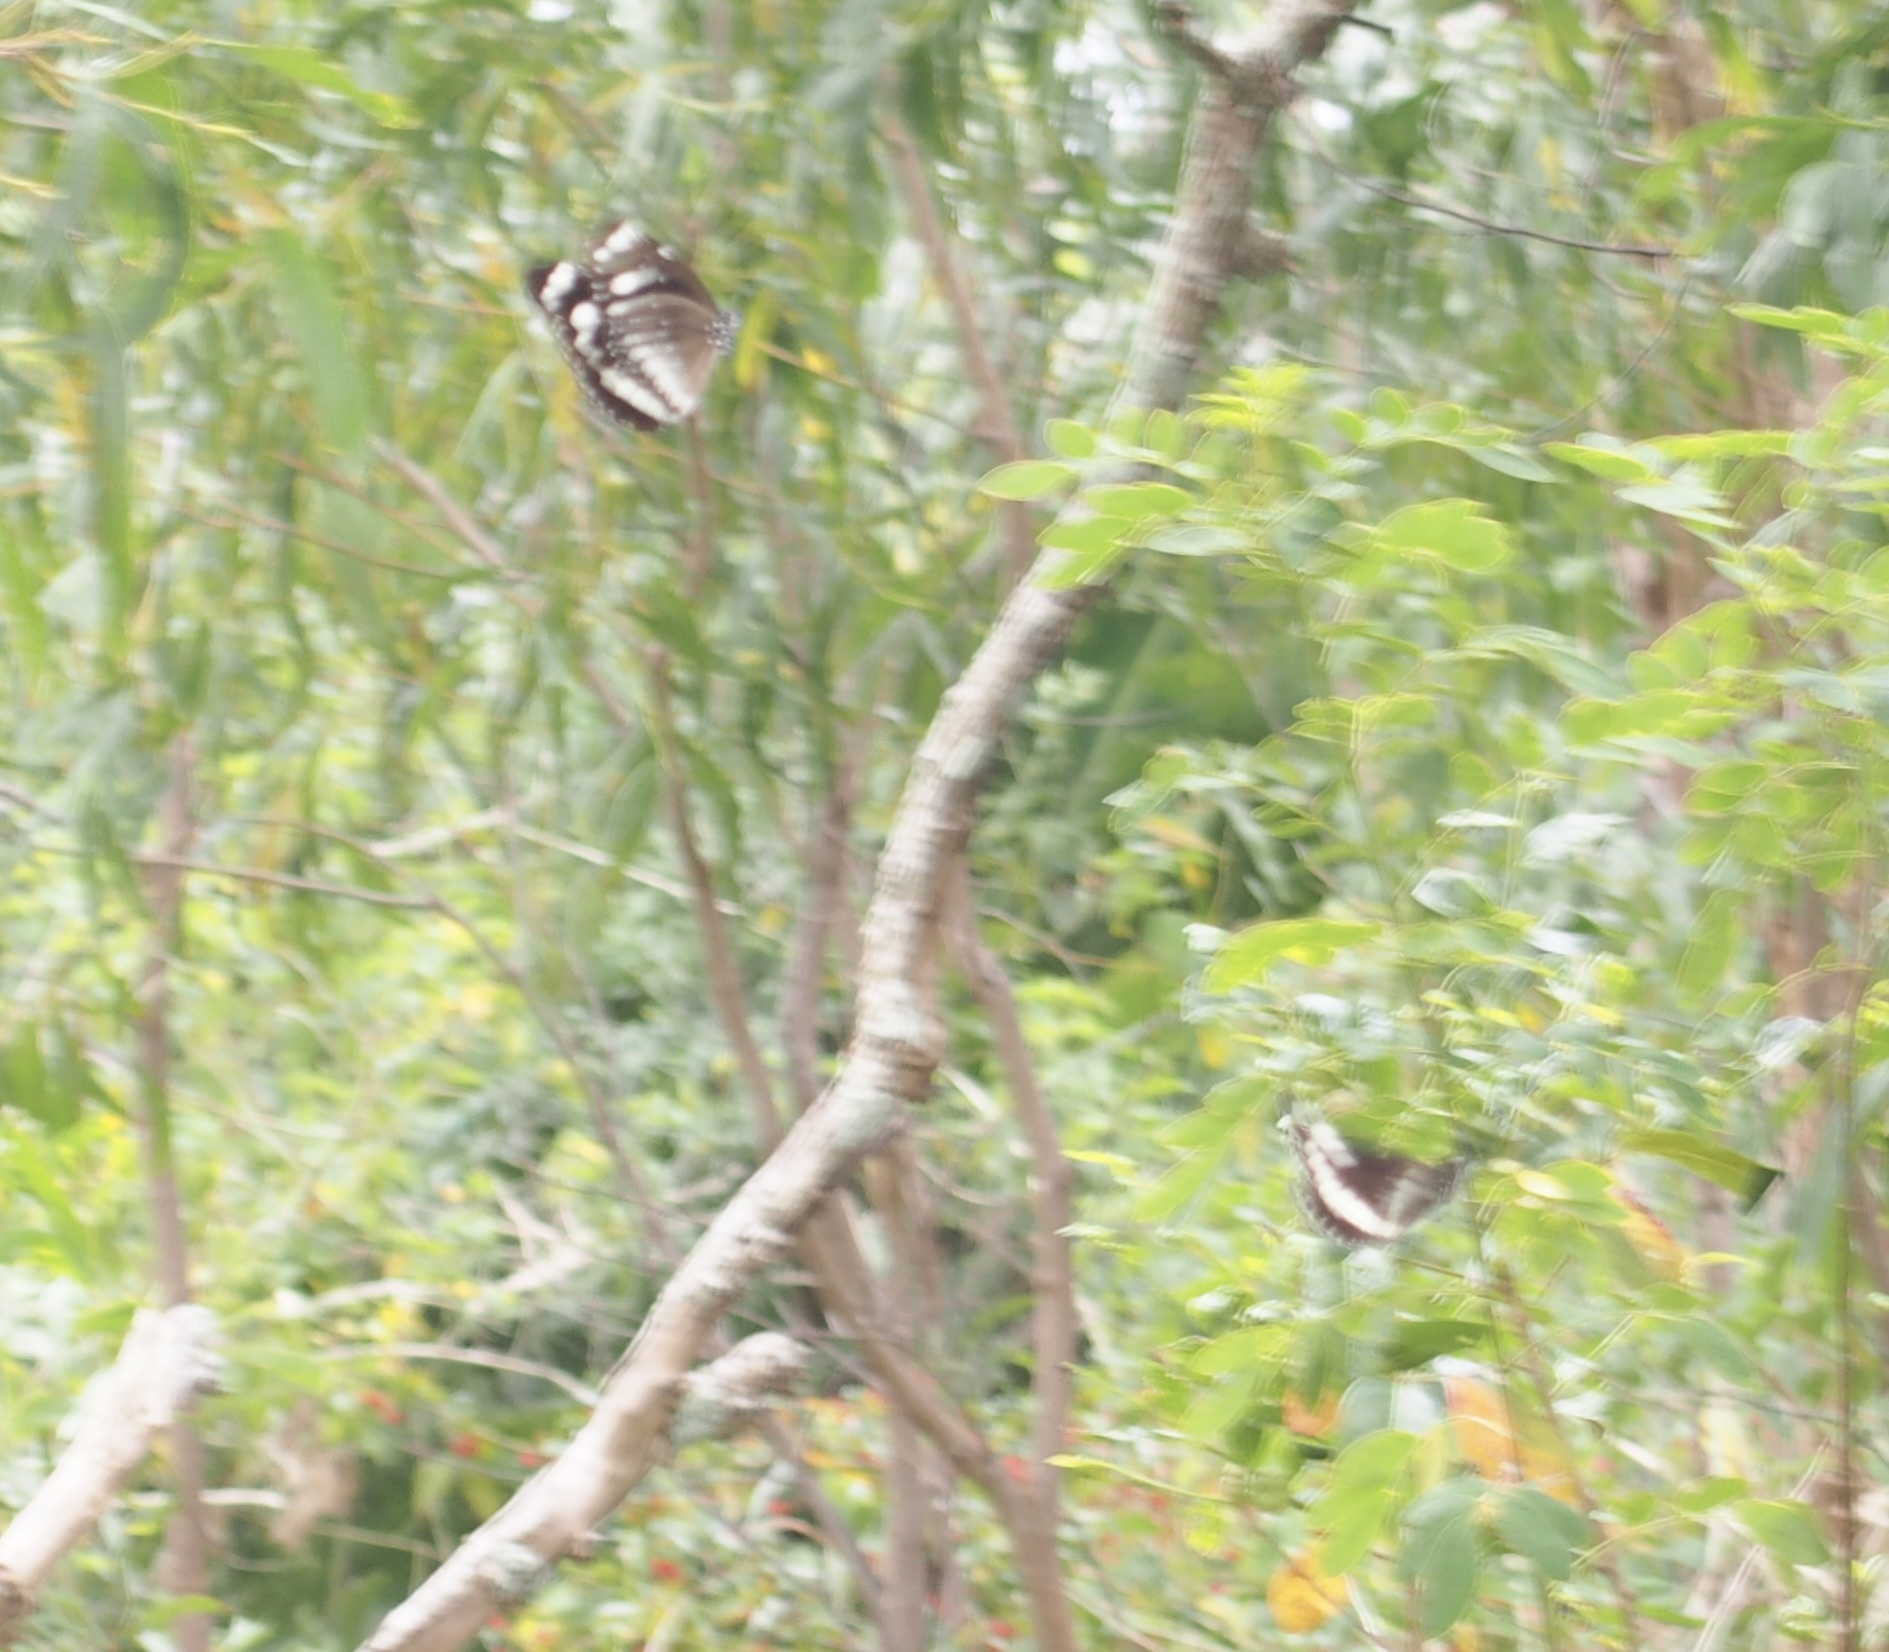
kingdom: Animalia
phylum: Arthropoda
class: Insecta
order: Lepidoptera
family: Nymphalidae
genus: Euploea
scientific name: Euploea core
